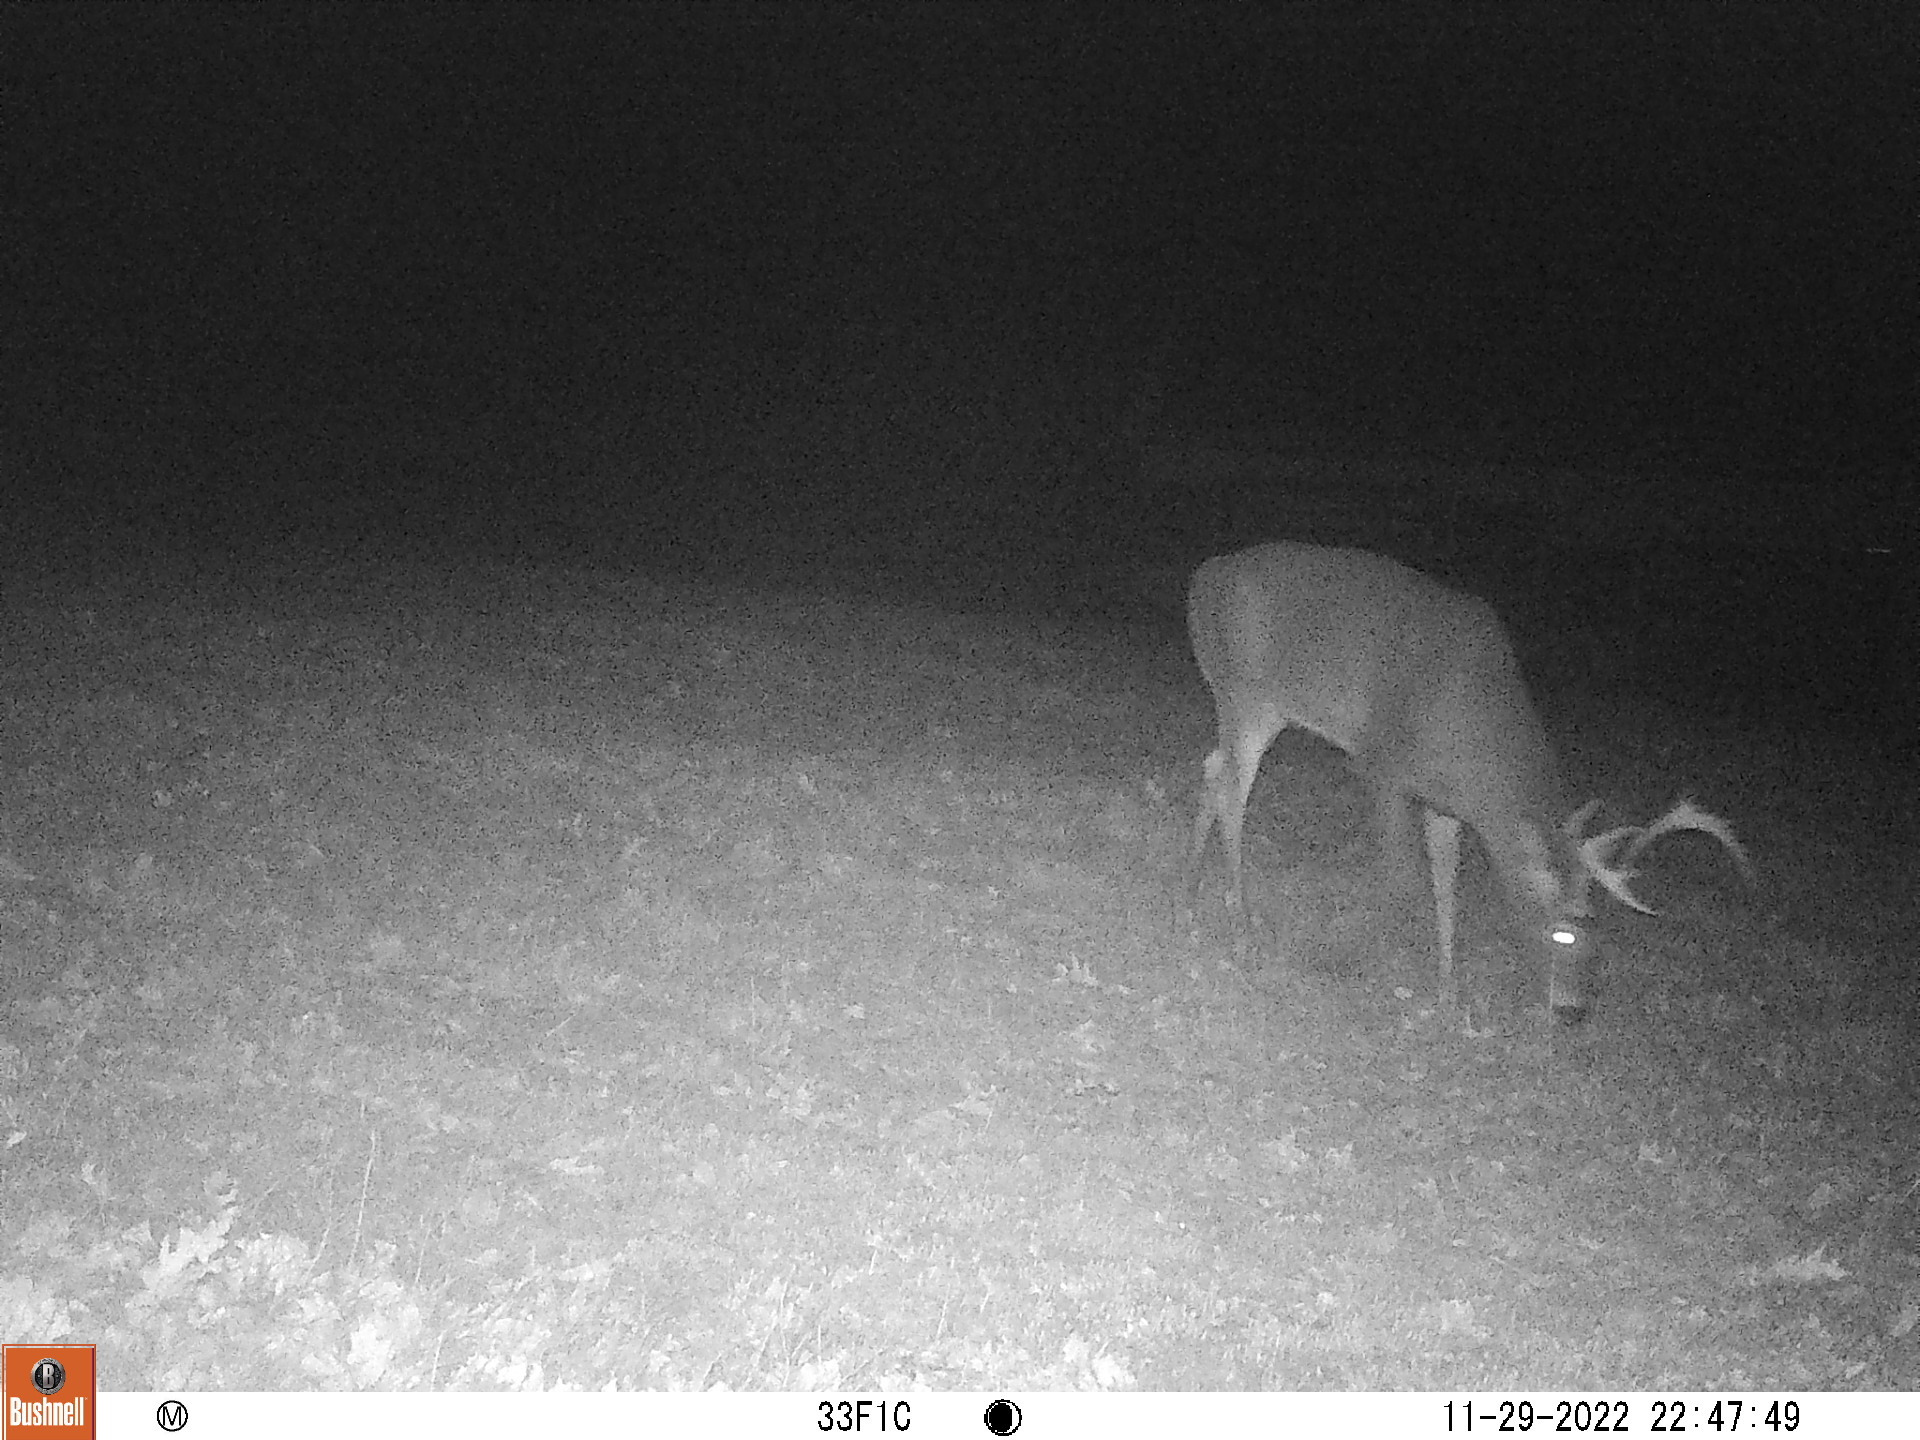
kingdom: Animalia
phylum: Chordata
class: Mammalia
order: Artiodactyla
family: Cervidae
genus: Odocoileus
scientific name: Odocoileus virginianus
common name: White-tailed deer
